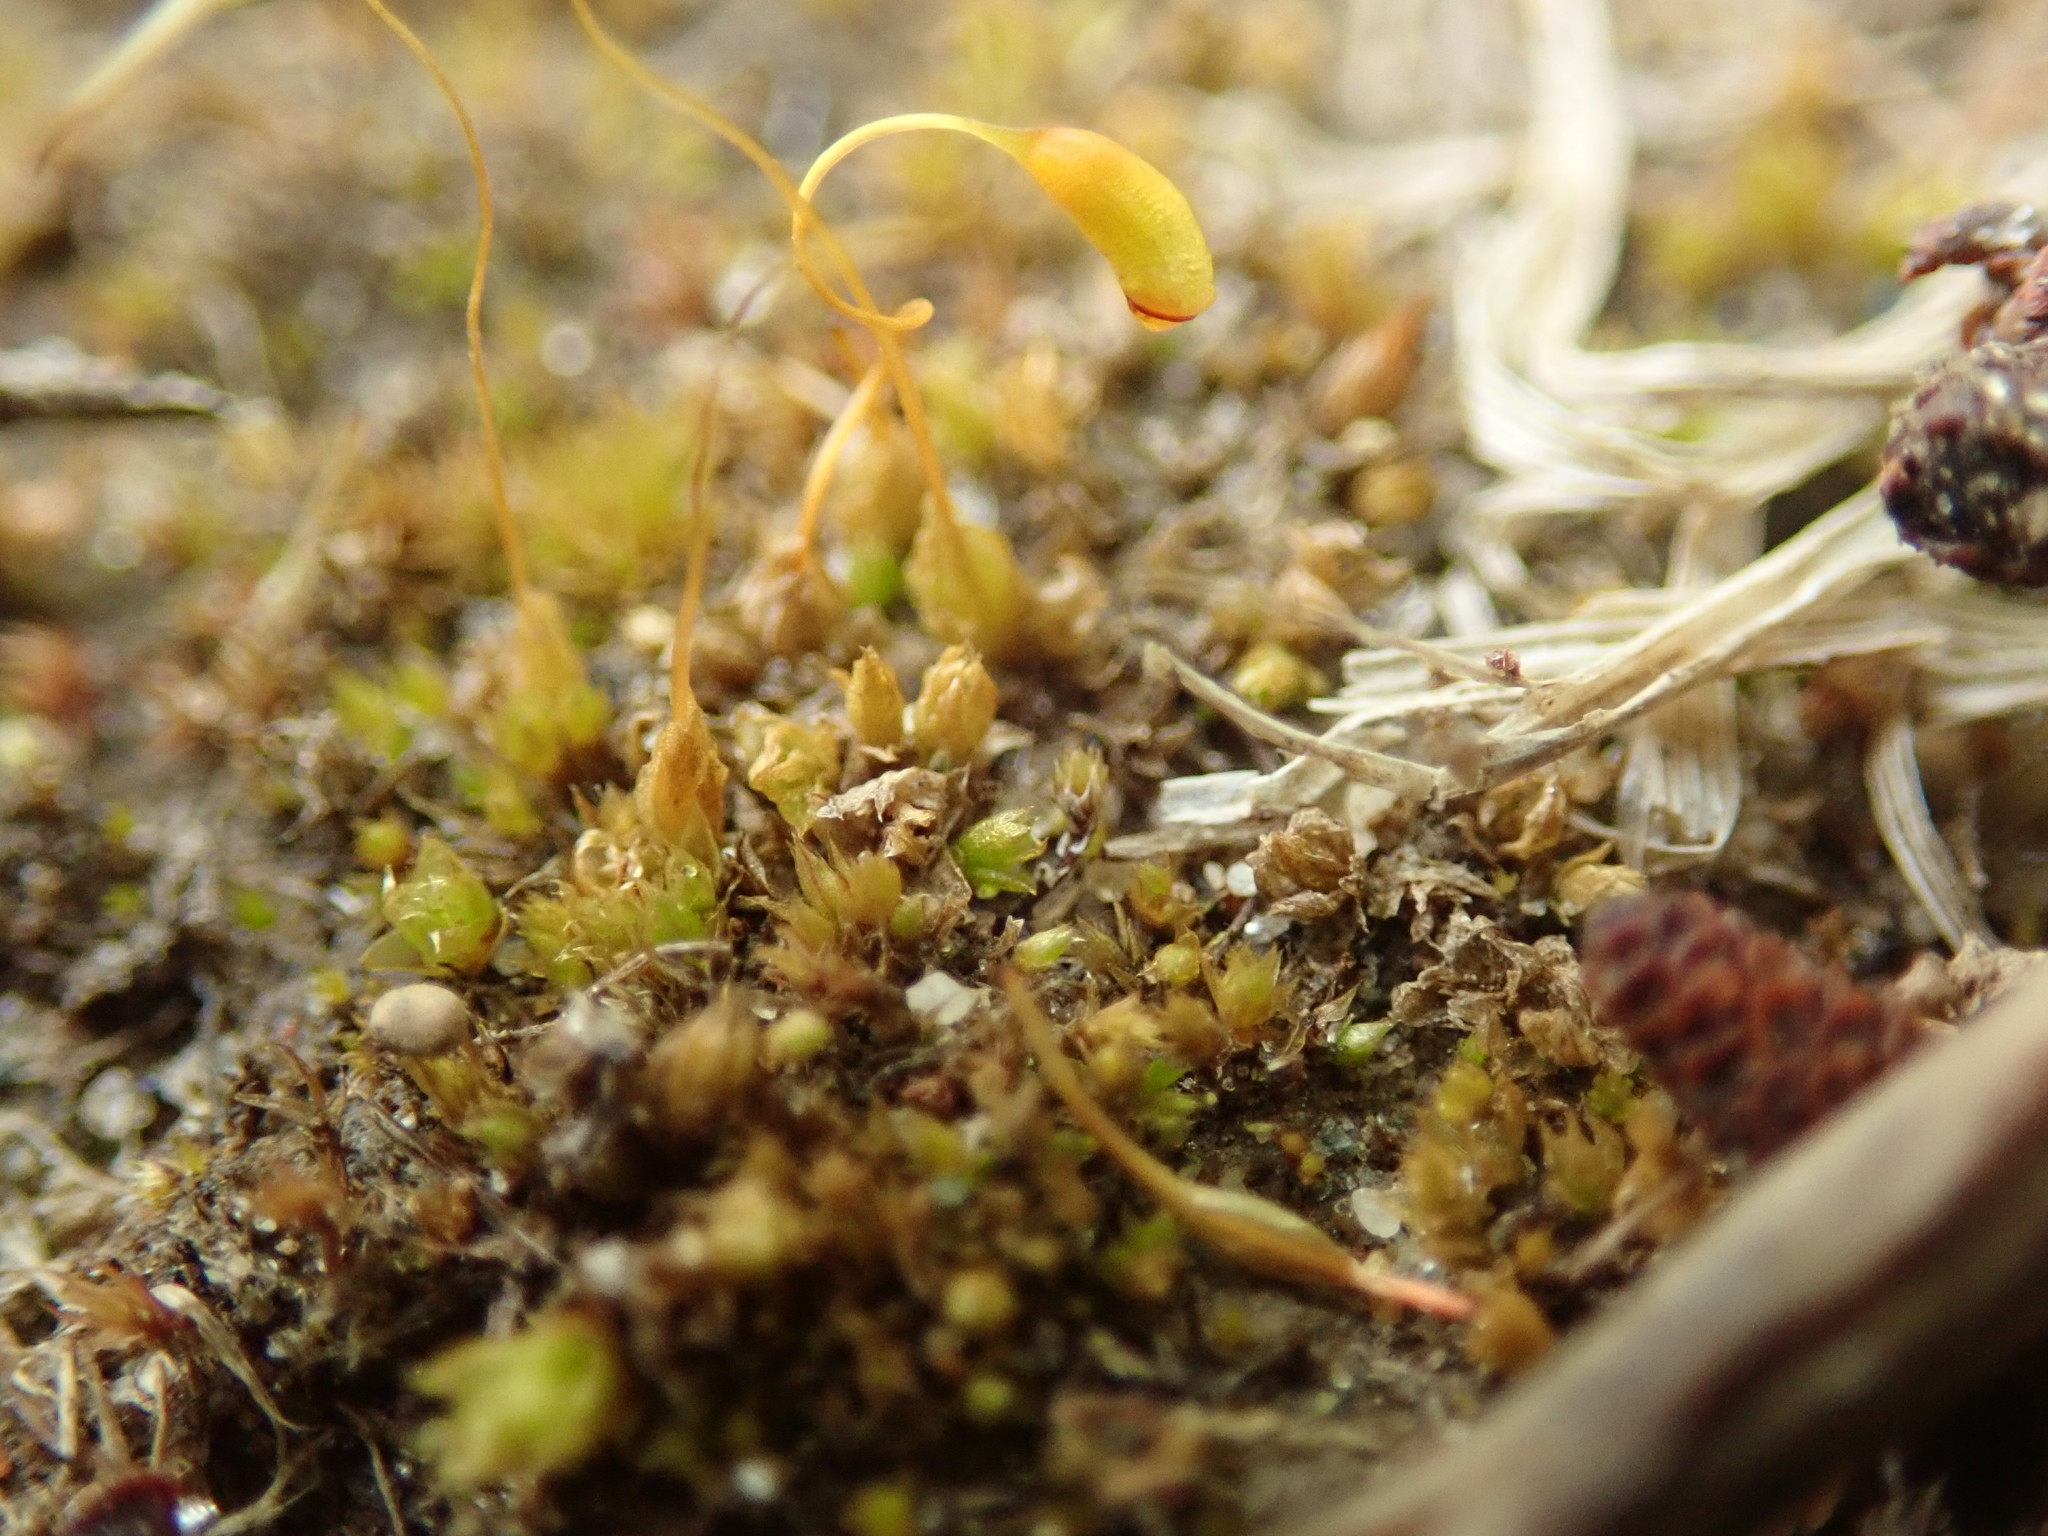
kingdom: Plantae
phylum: Bryophyta
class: Bryopsida
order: Funariales
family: Funariaceae
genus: Funaria
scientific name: Funaria hygrometrica
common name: Common cord moss
